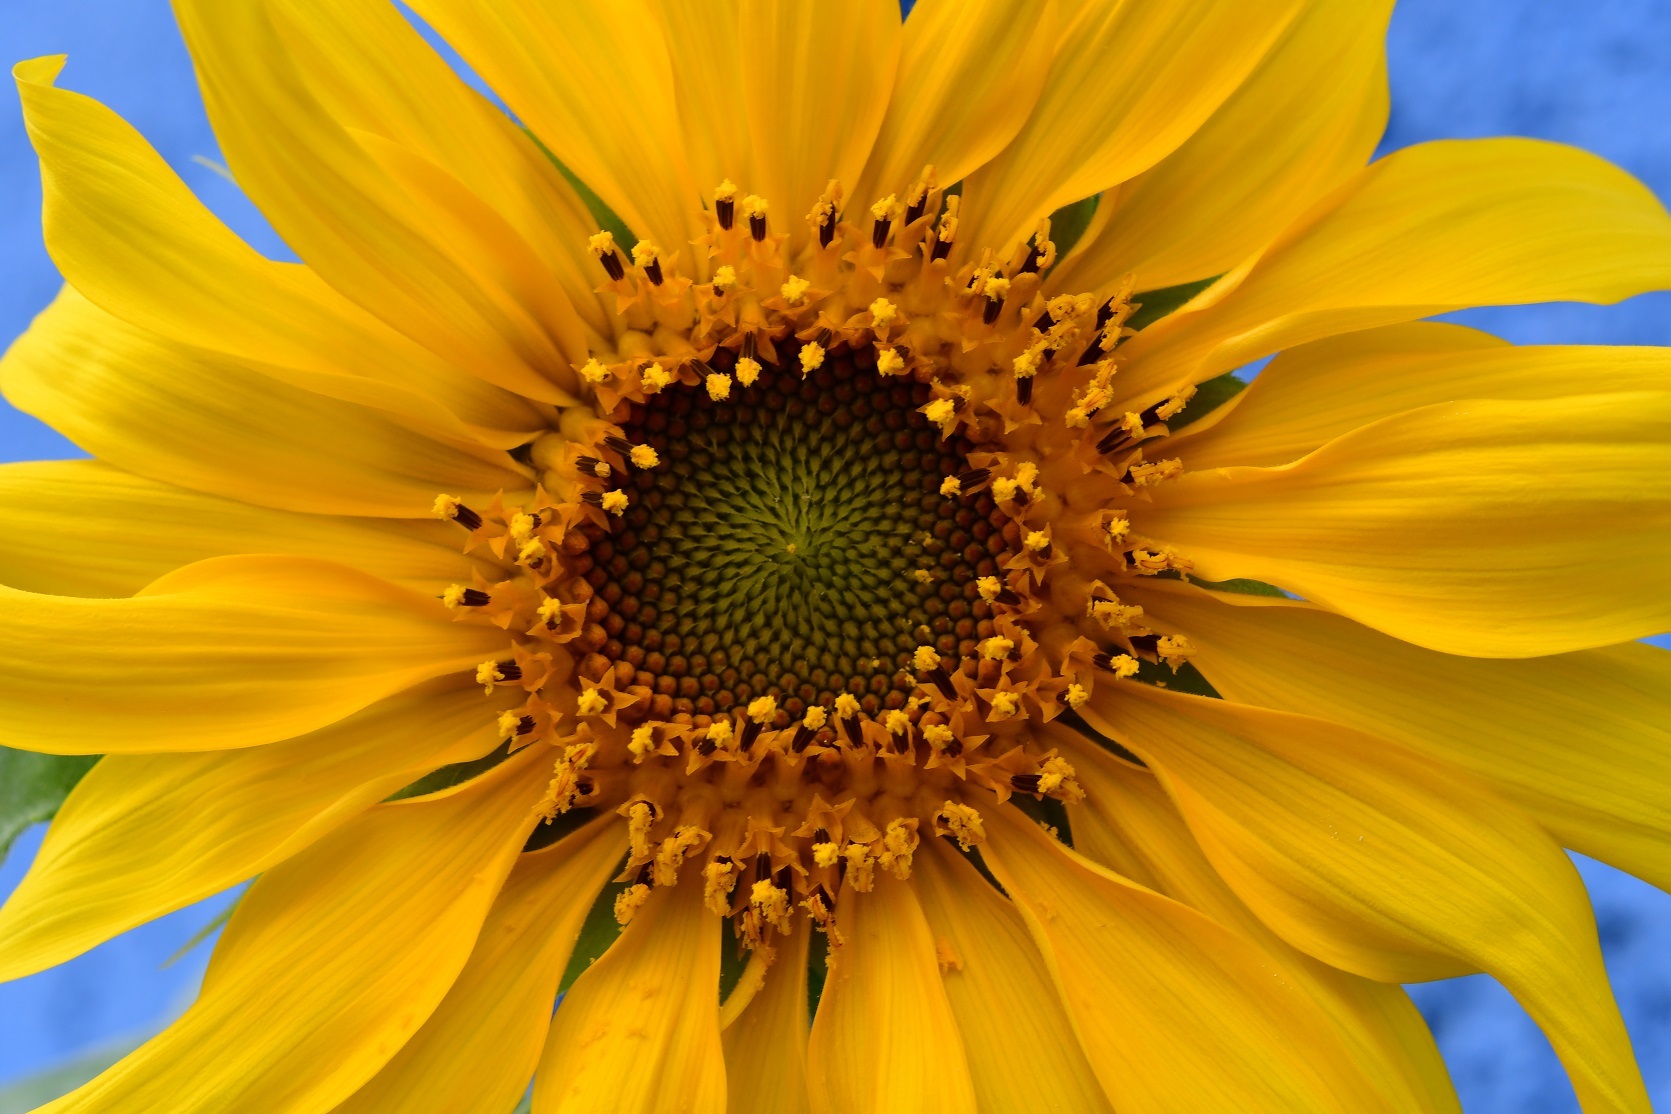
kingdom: Plantae
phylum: Tracheophyta
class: Magnoliopsida
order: Asterales
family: Asteraceae
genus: Helianthus
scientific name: Helianthus annuus
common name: Sunflower
